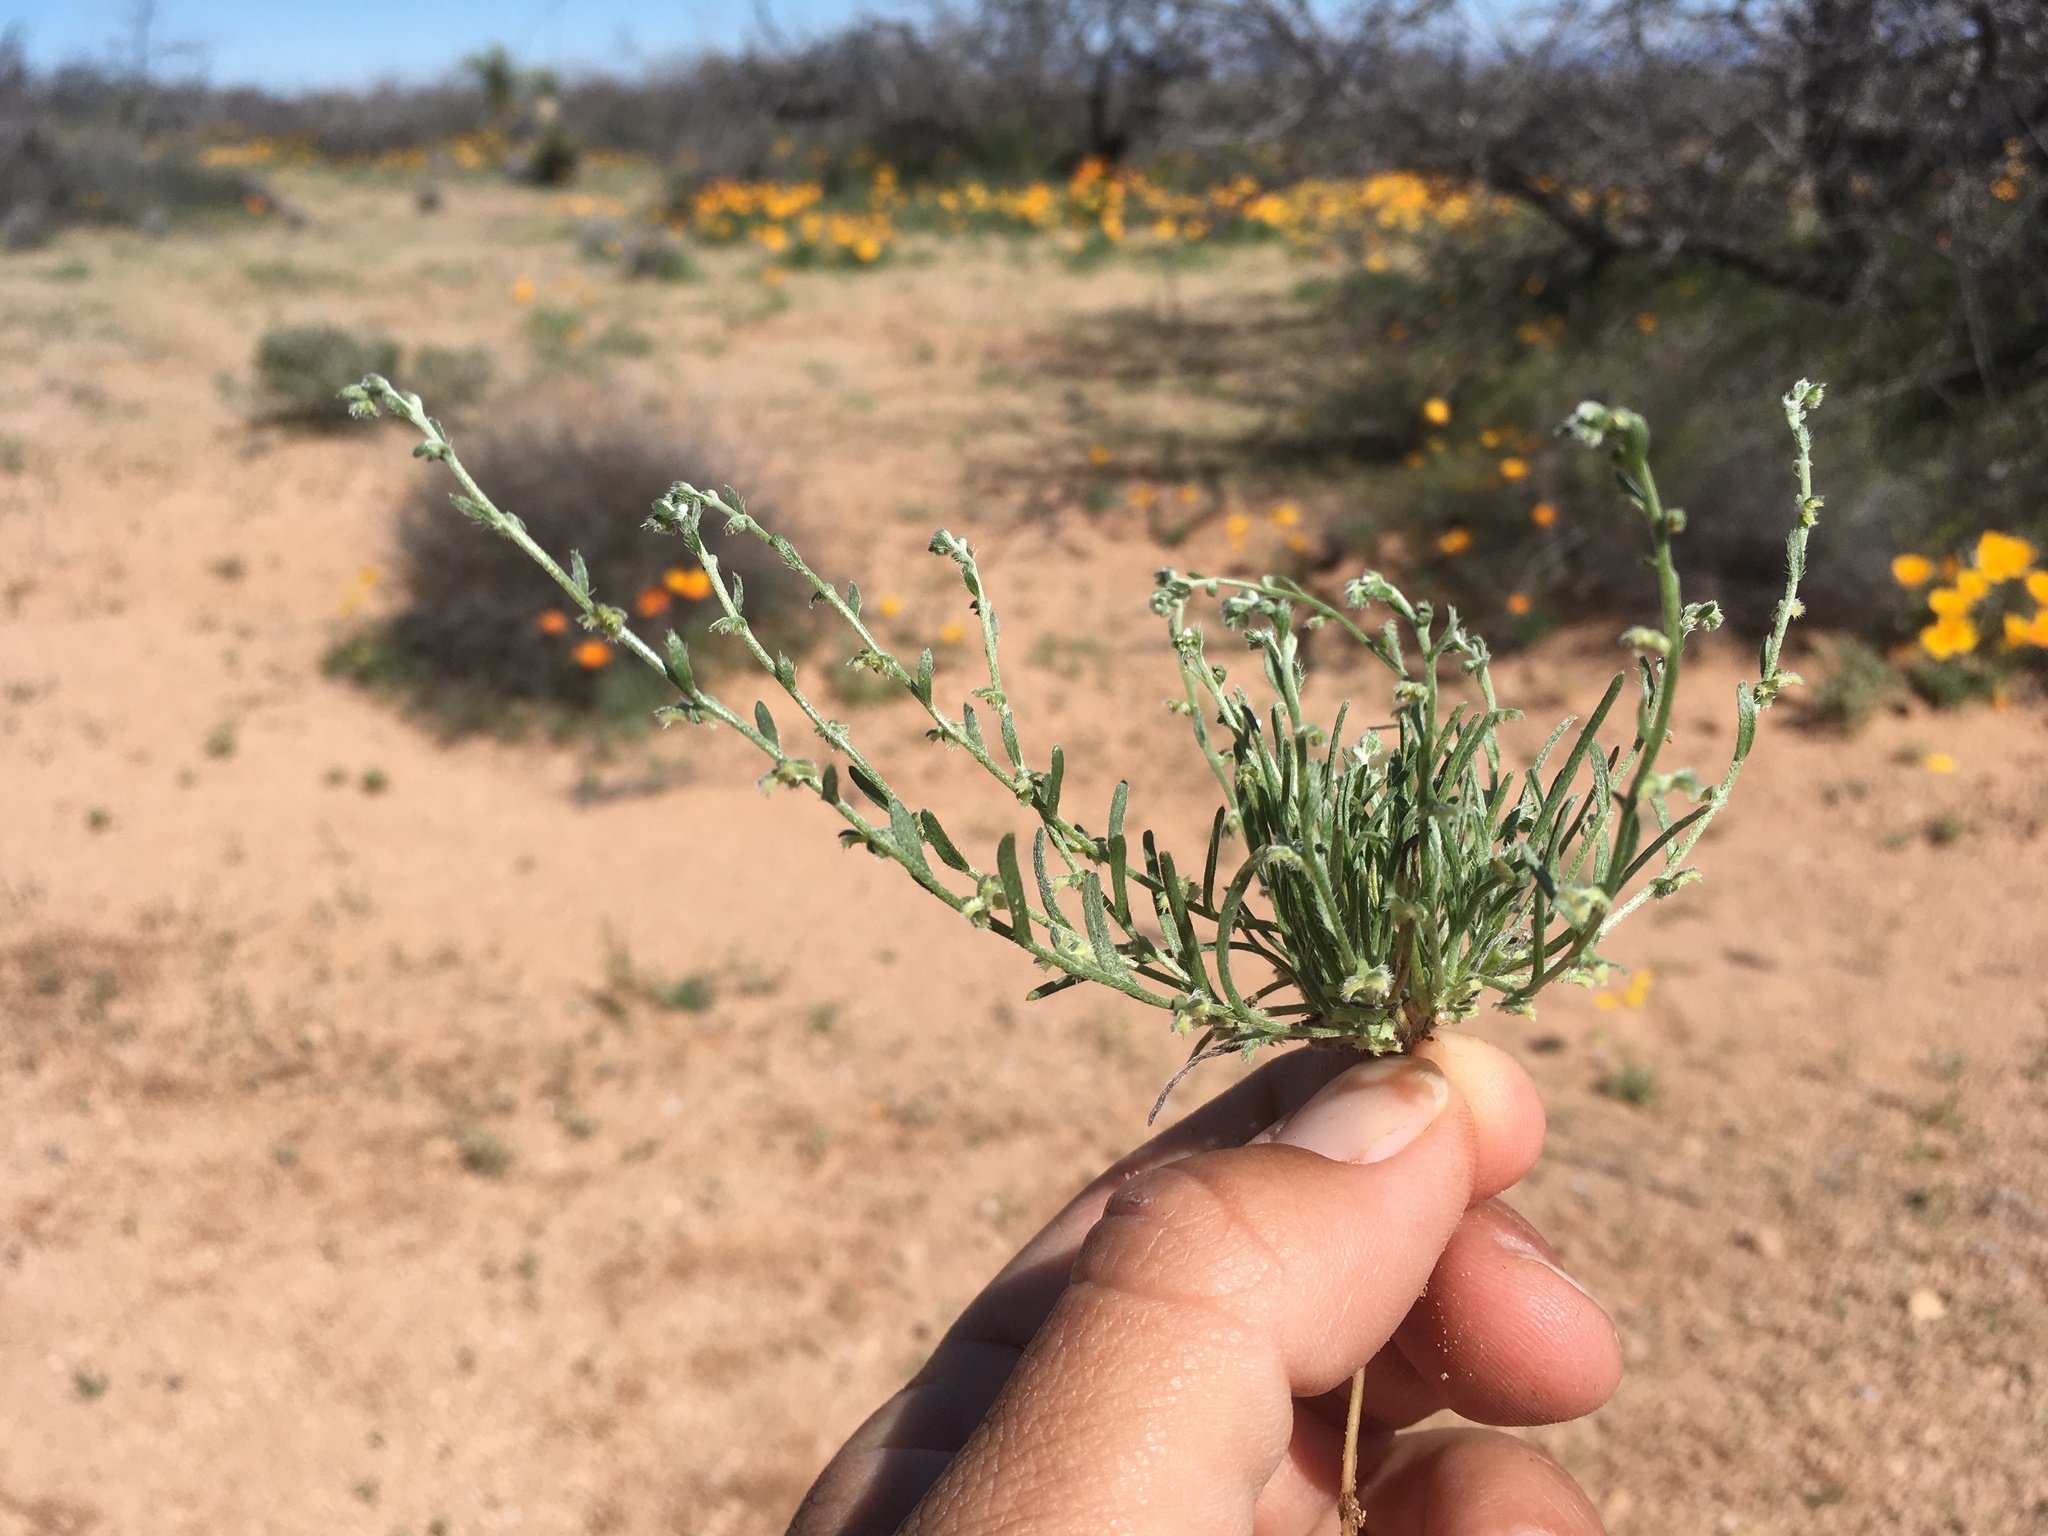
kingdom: Plantae
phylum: Tracheophyta
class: Magnoliopsida
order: Boraginales
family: Boraginaceae
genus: Pectocarya
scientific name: Pectocarya heterocarpa
